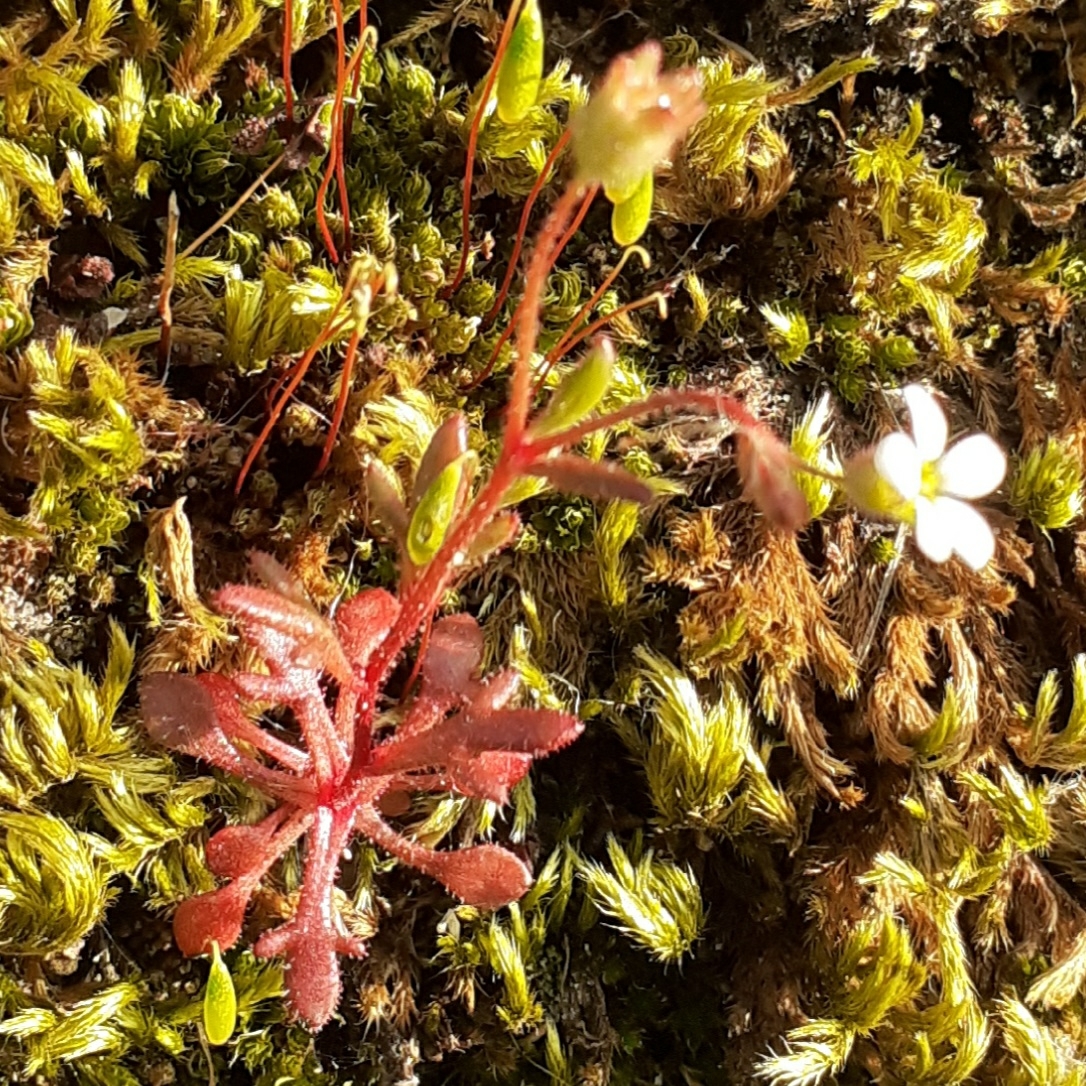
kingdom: Plantae
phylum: Tracheophyta
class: Magnoliopsida
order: Saxifragales
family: Saxifragaceae
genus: Saxifraga
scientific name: Saxifraga tridactylites
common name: Rue-leaved saxifrage
